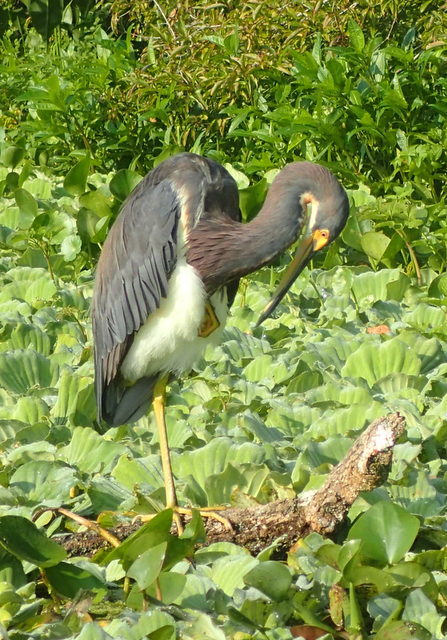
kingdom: Animalia
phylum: Chordata
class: Aves
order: Pelecaniformes
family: Ardeidae
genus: Egretta
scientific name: Egretta tricolor
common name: Tricolored heron
